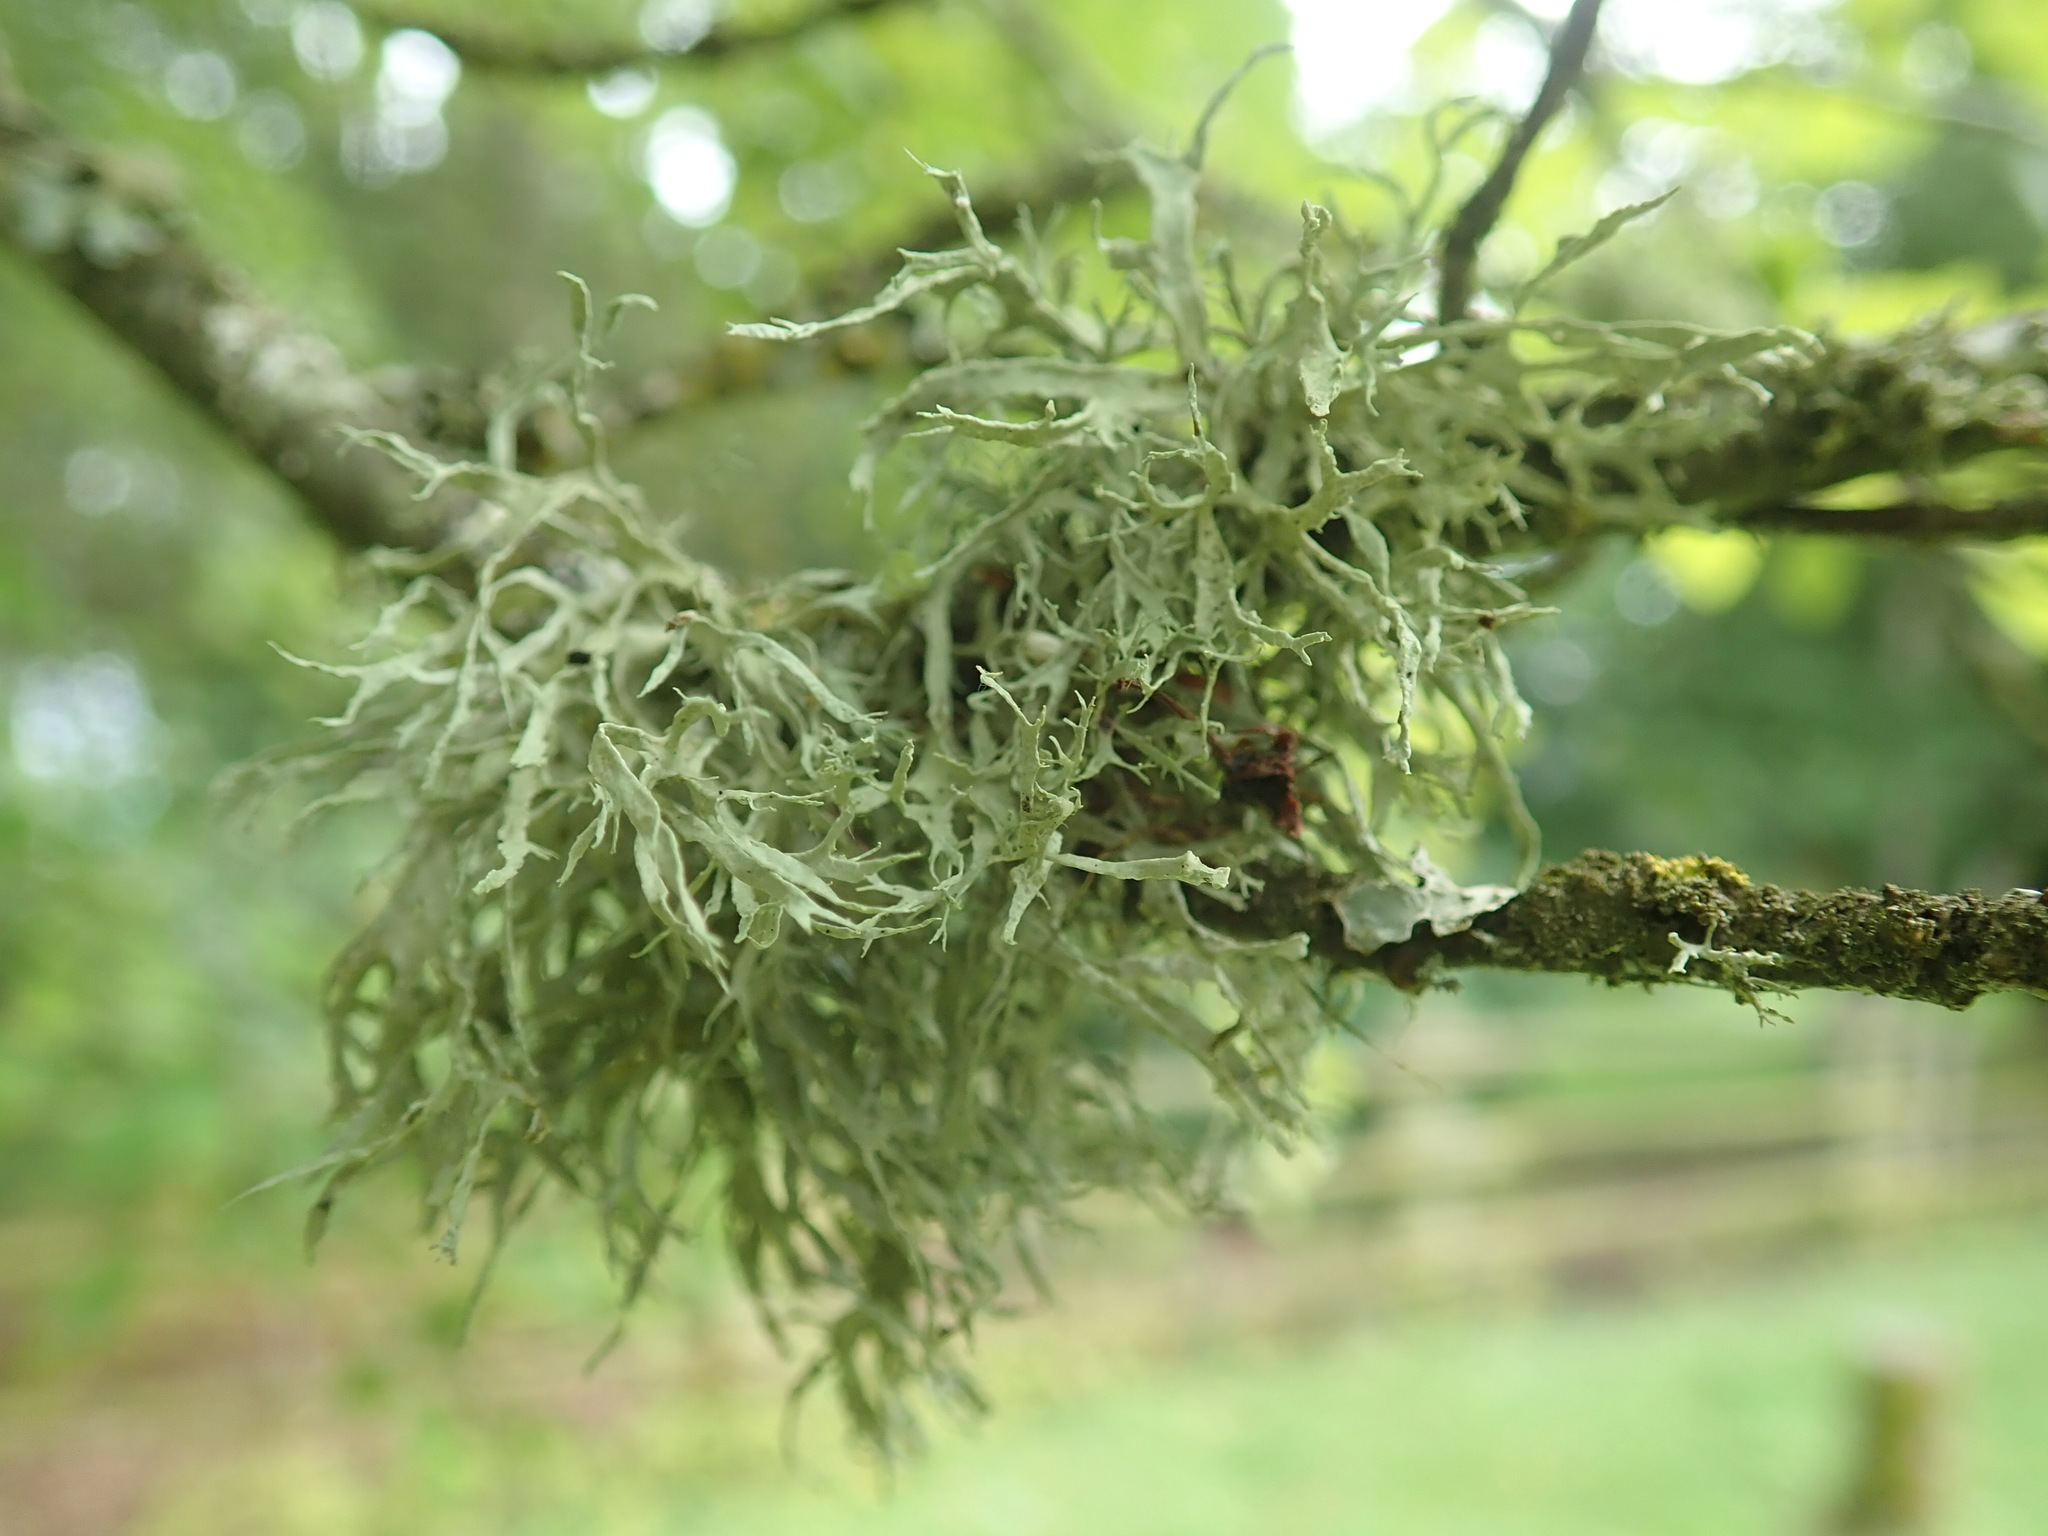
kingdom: Fungi
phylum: Ascomycota
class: Lecanoromycetes
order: Lecanorales
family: Ramalinaceae
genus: Ramalina
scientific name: Ramalina farinacea
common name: Farinose cartilage lichen
